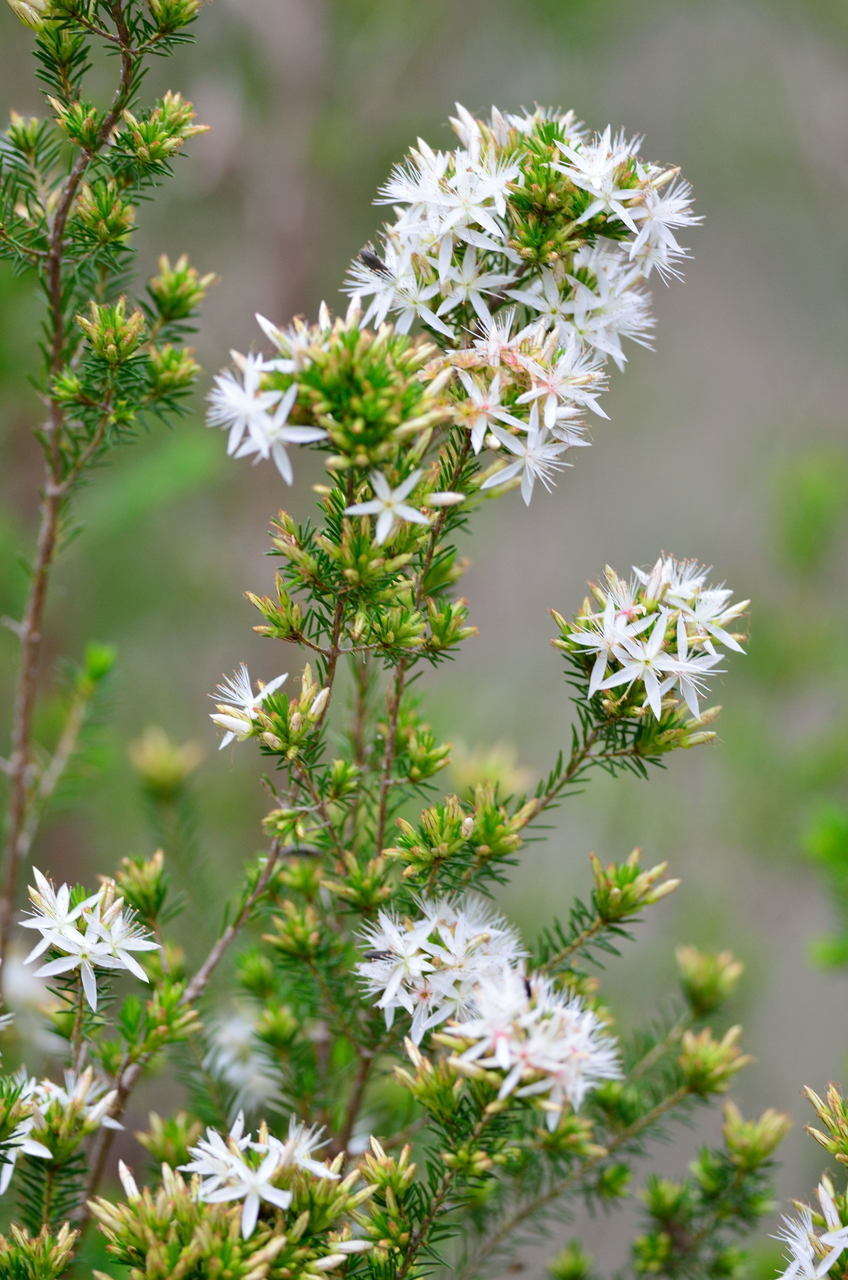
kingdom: Plantae
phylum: Tracheophyta
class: Magnoliopsida
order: Myrtales
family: Myrtaceae
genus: Calytrix
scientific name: Calytrix tetragona
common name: Common fringe myrtle
